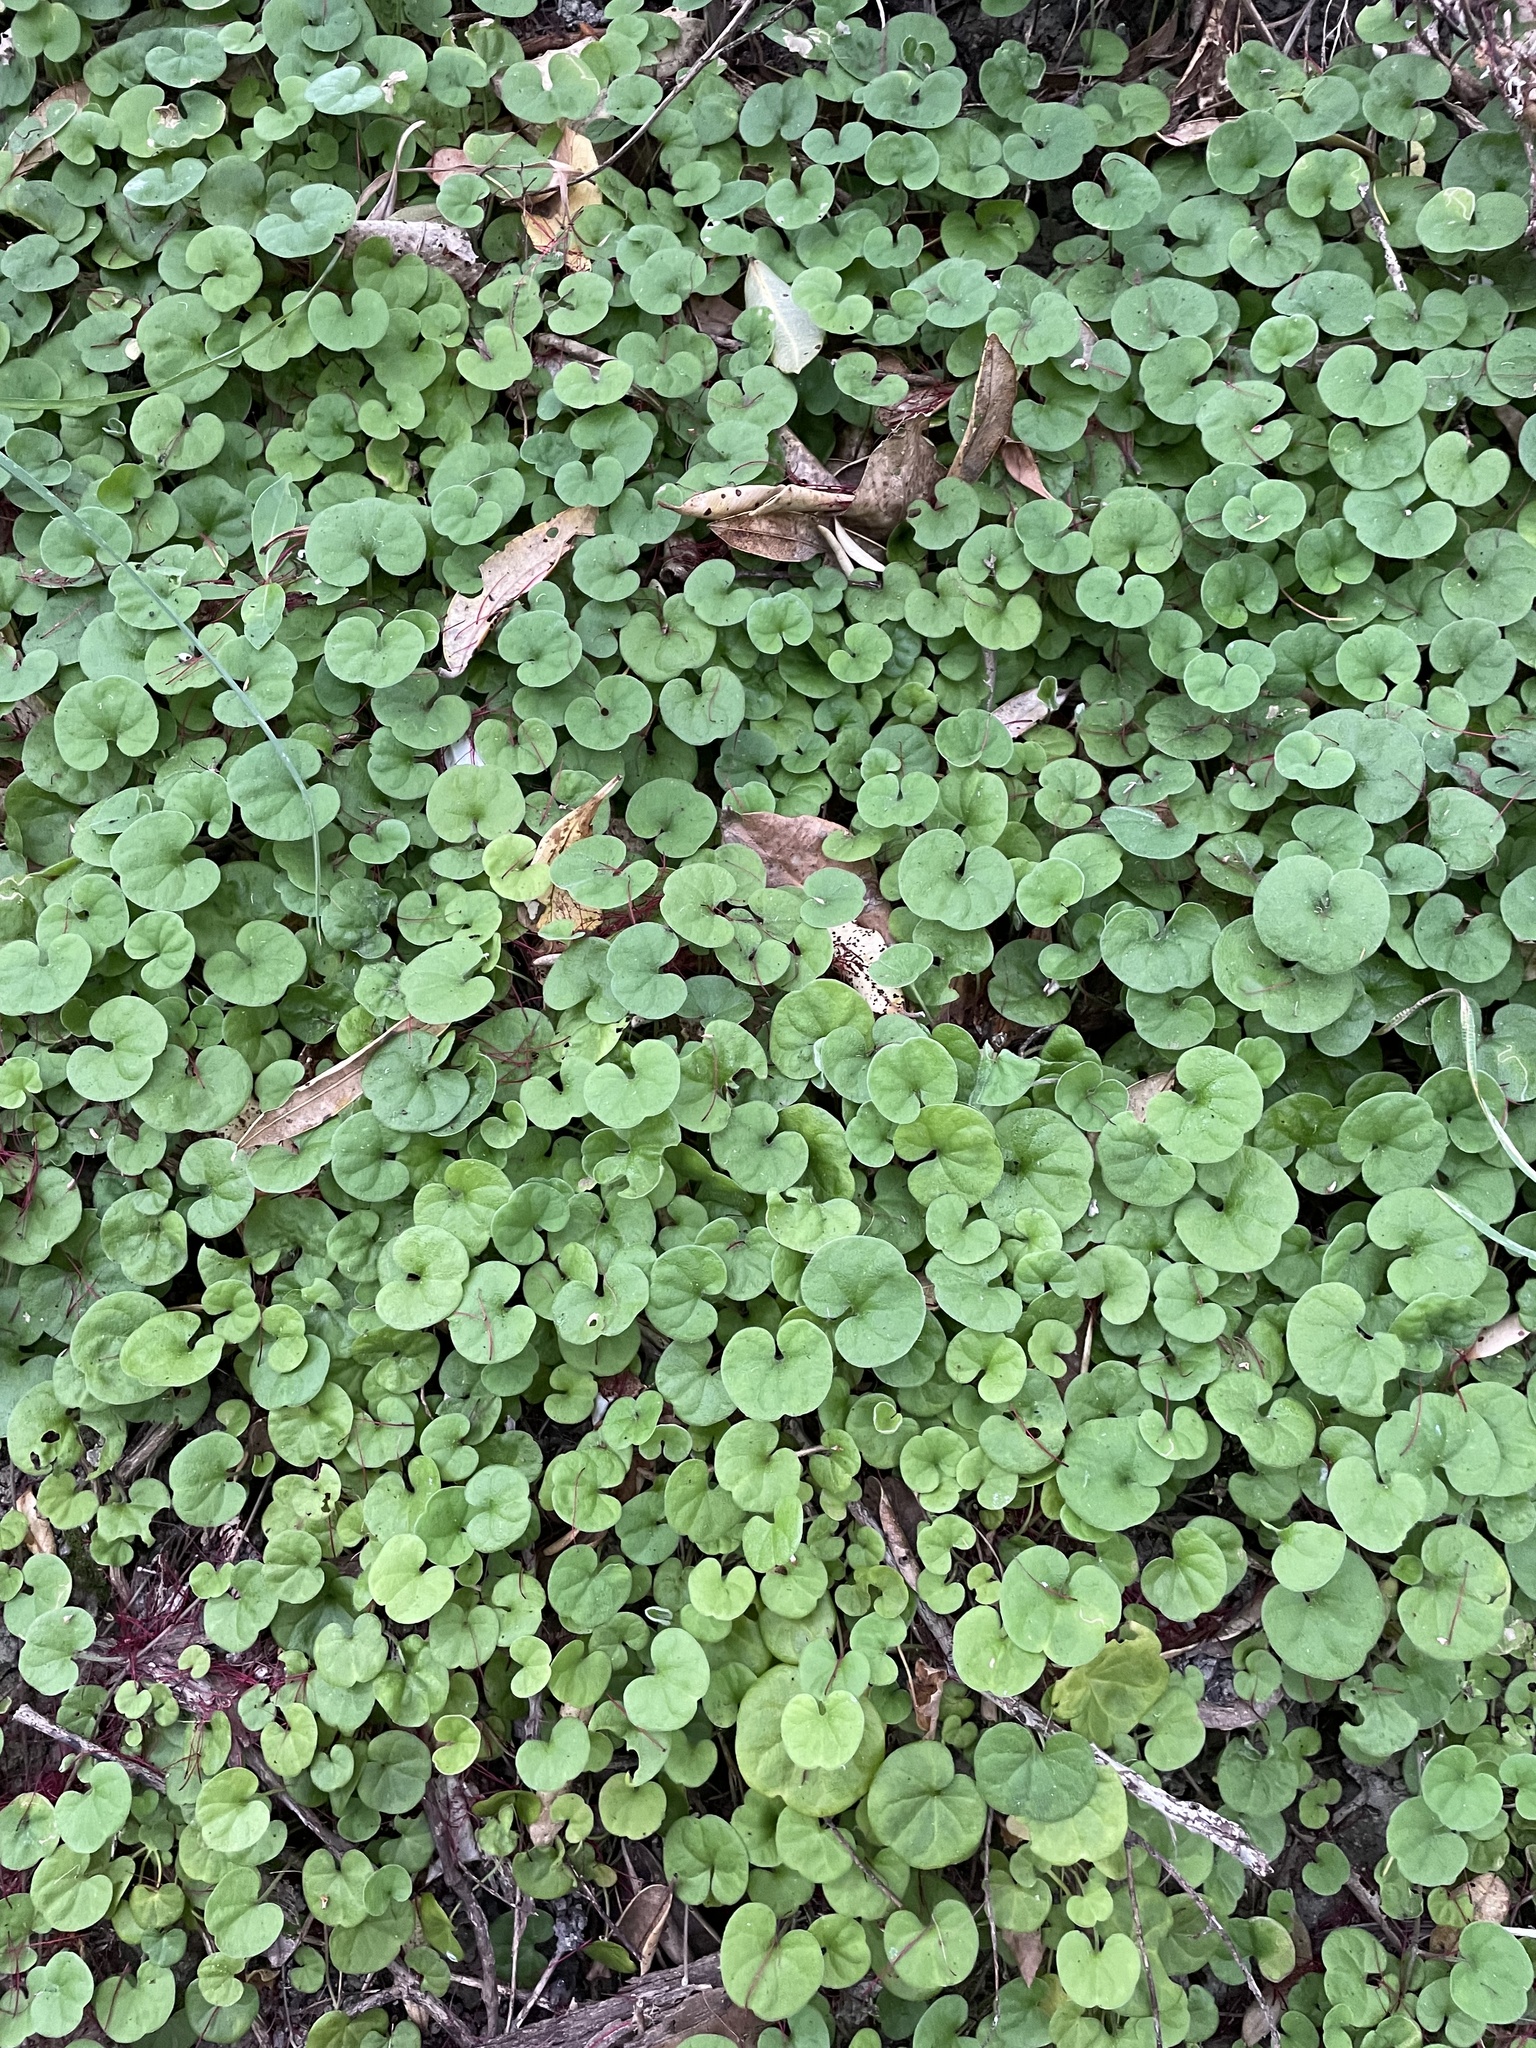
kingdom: Plantae
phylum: Tracheophyta
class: Magnoliopsida
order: Solanales
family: Convolvulaceae
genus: Dichondra
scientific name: Dichondra repens
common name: Kidneyweed
